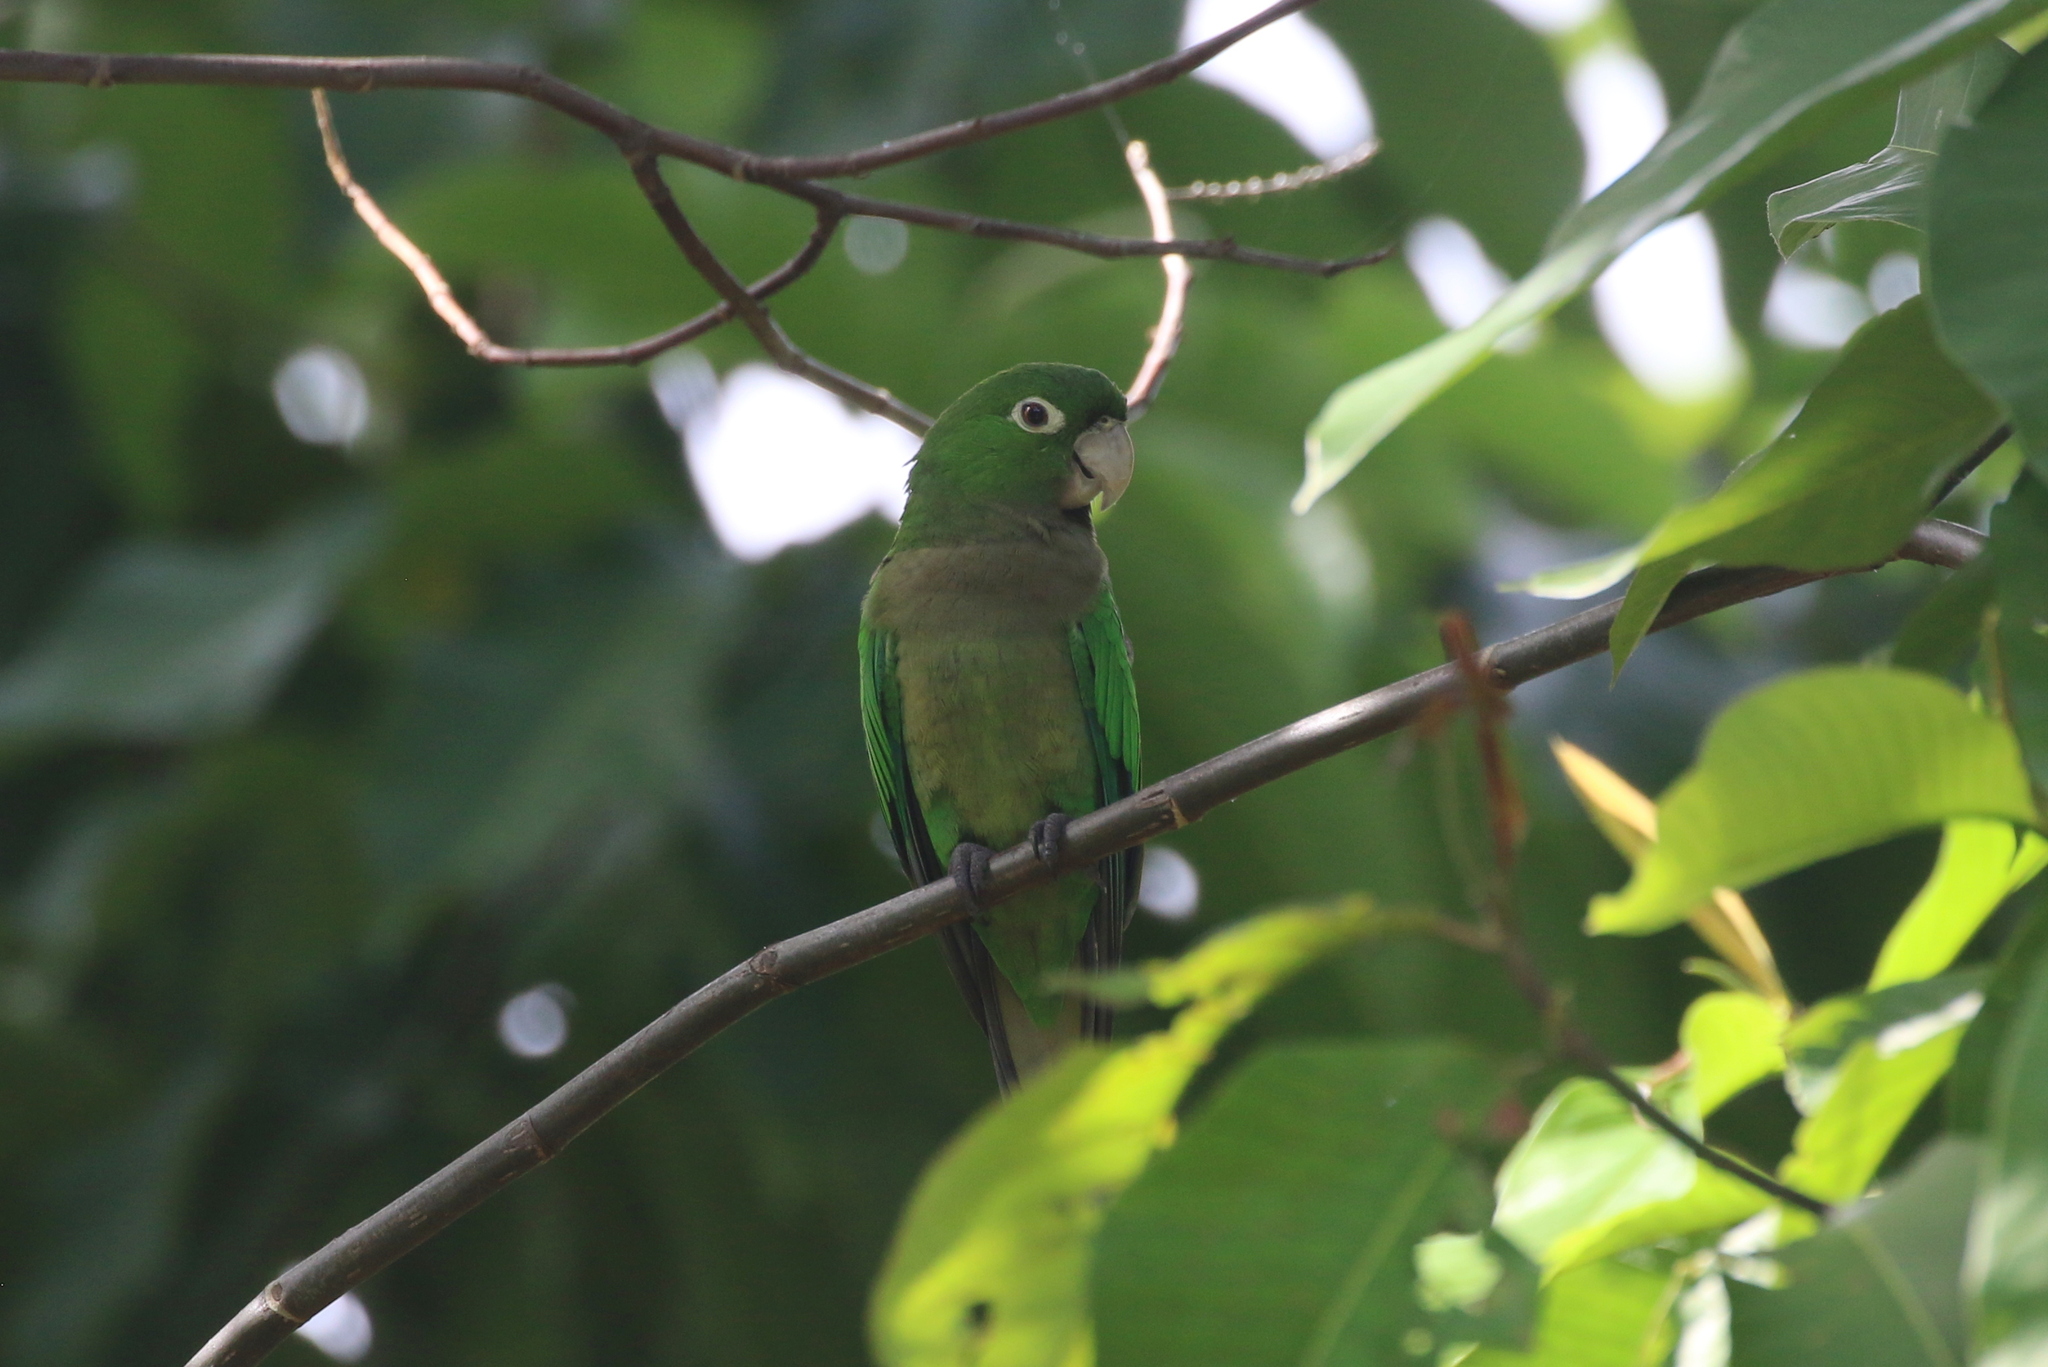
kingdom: Animalia
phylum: Chordata
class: Aves
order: Psittaciformes
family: Psittacidae
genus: Aratinga
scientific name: Aratinga nana
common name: Olive-throated parakeet
